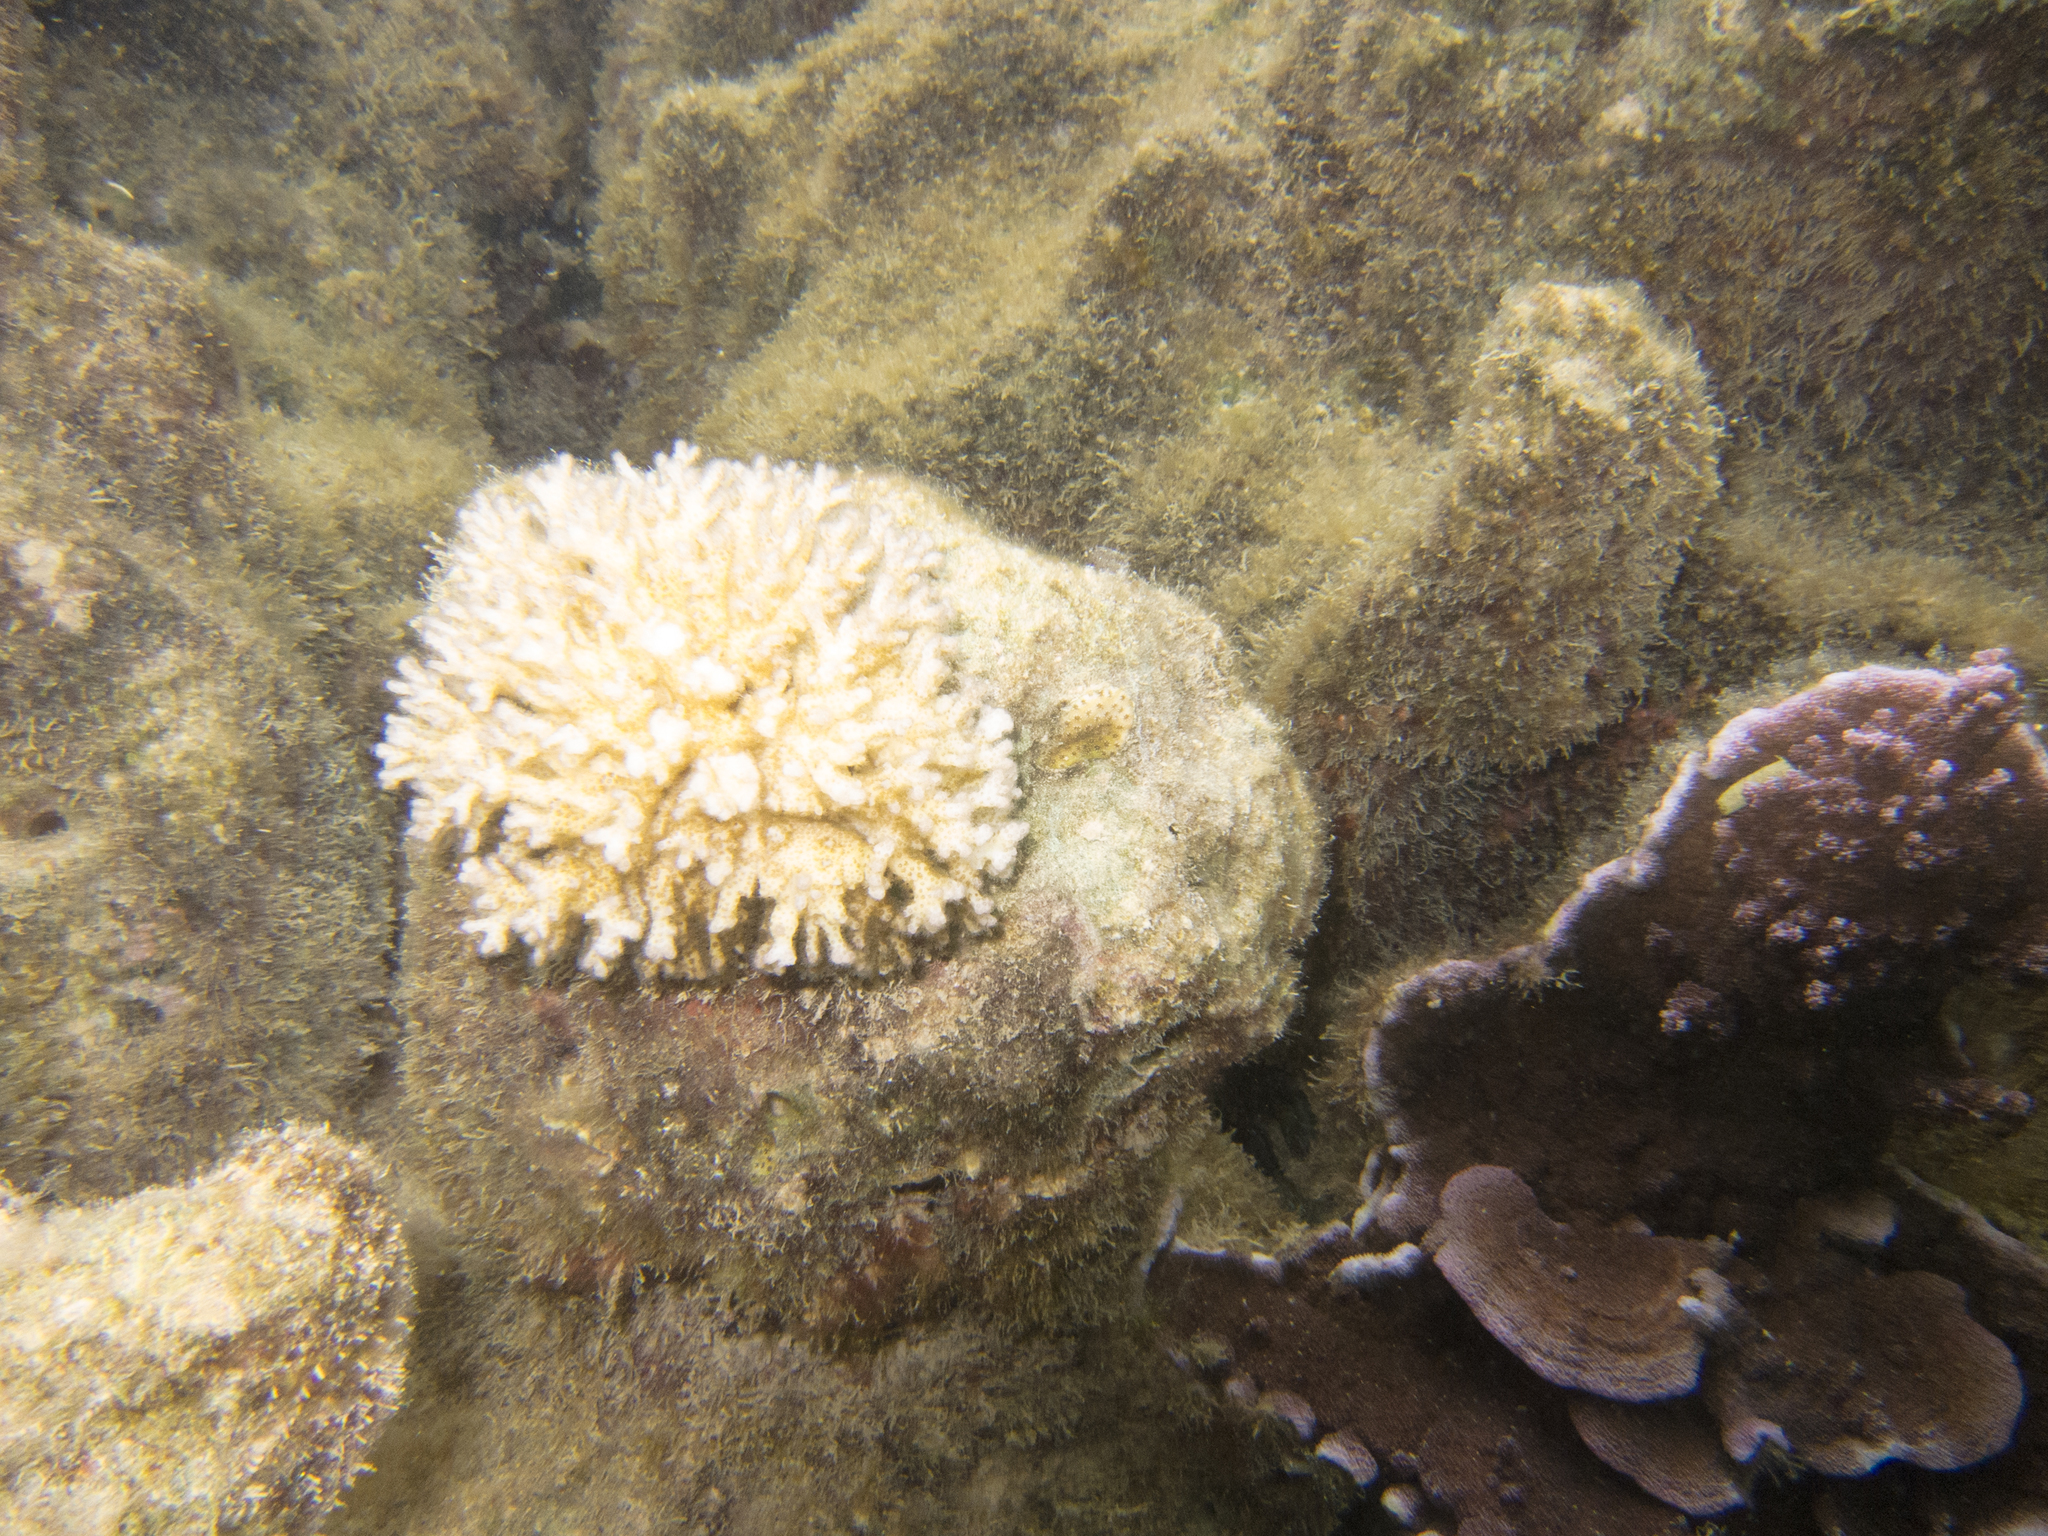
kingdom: Animalia
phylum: Cnidaria
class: Anthozoa
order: Scleractinia
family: Pocilloporidae
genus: Pocillopora
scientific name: Pocillopora damicornis
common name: Cauliflower coral
